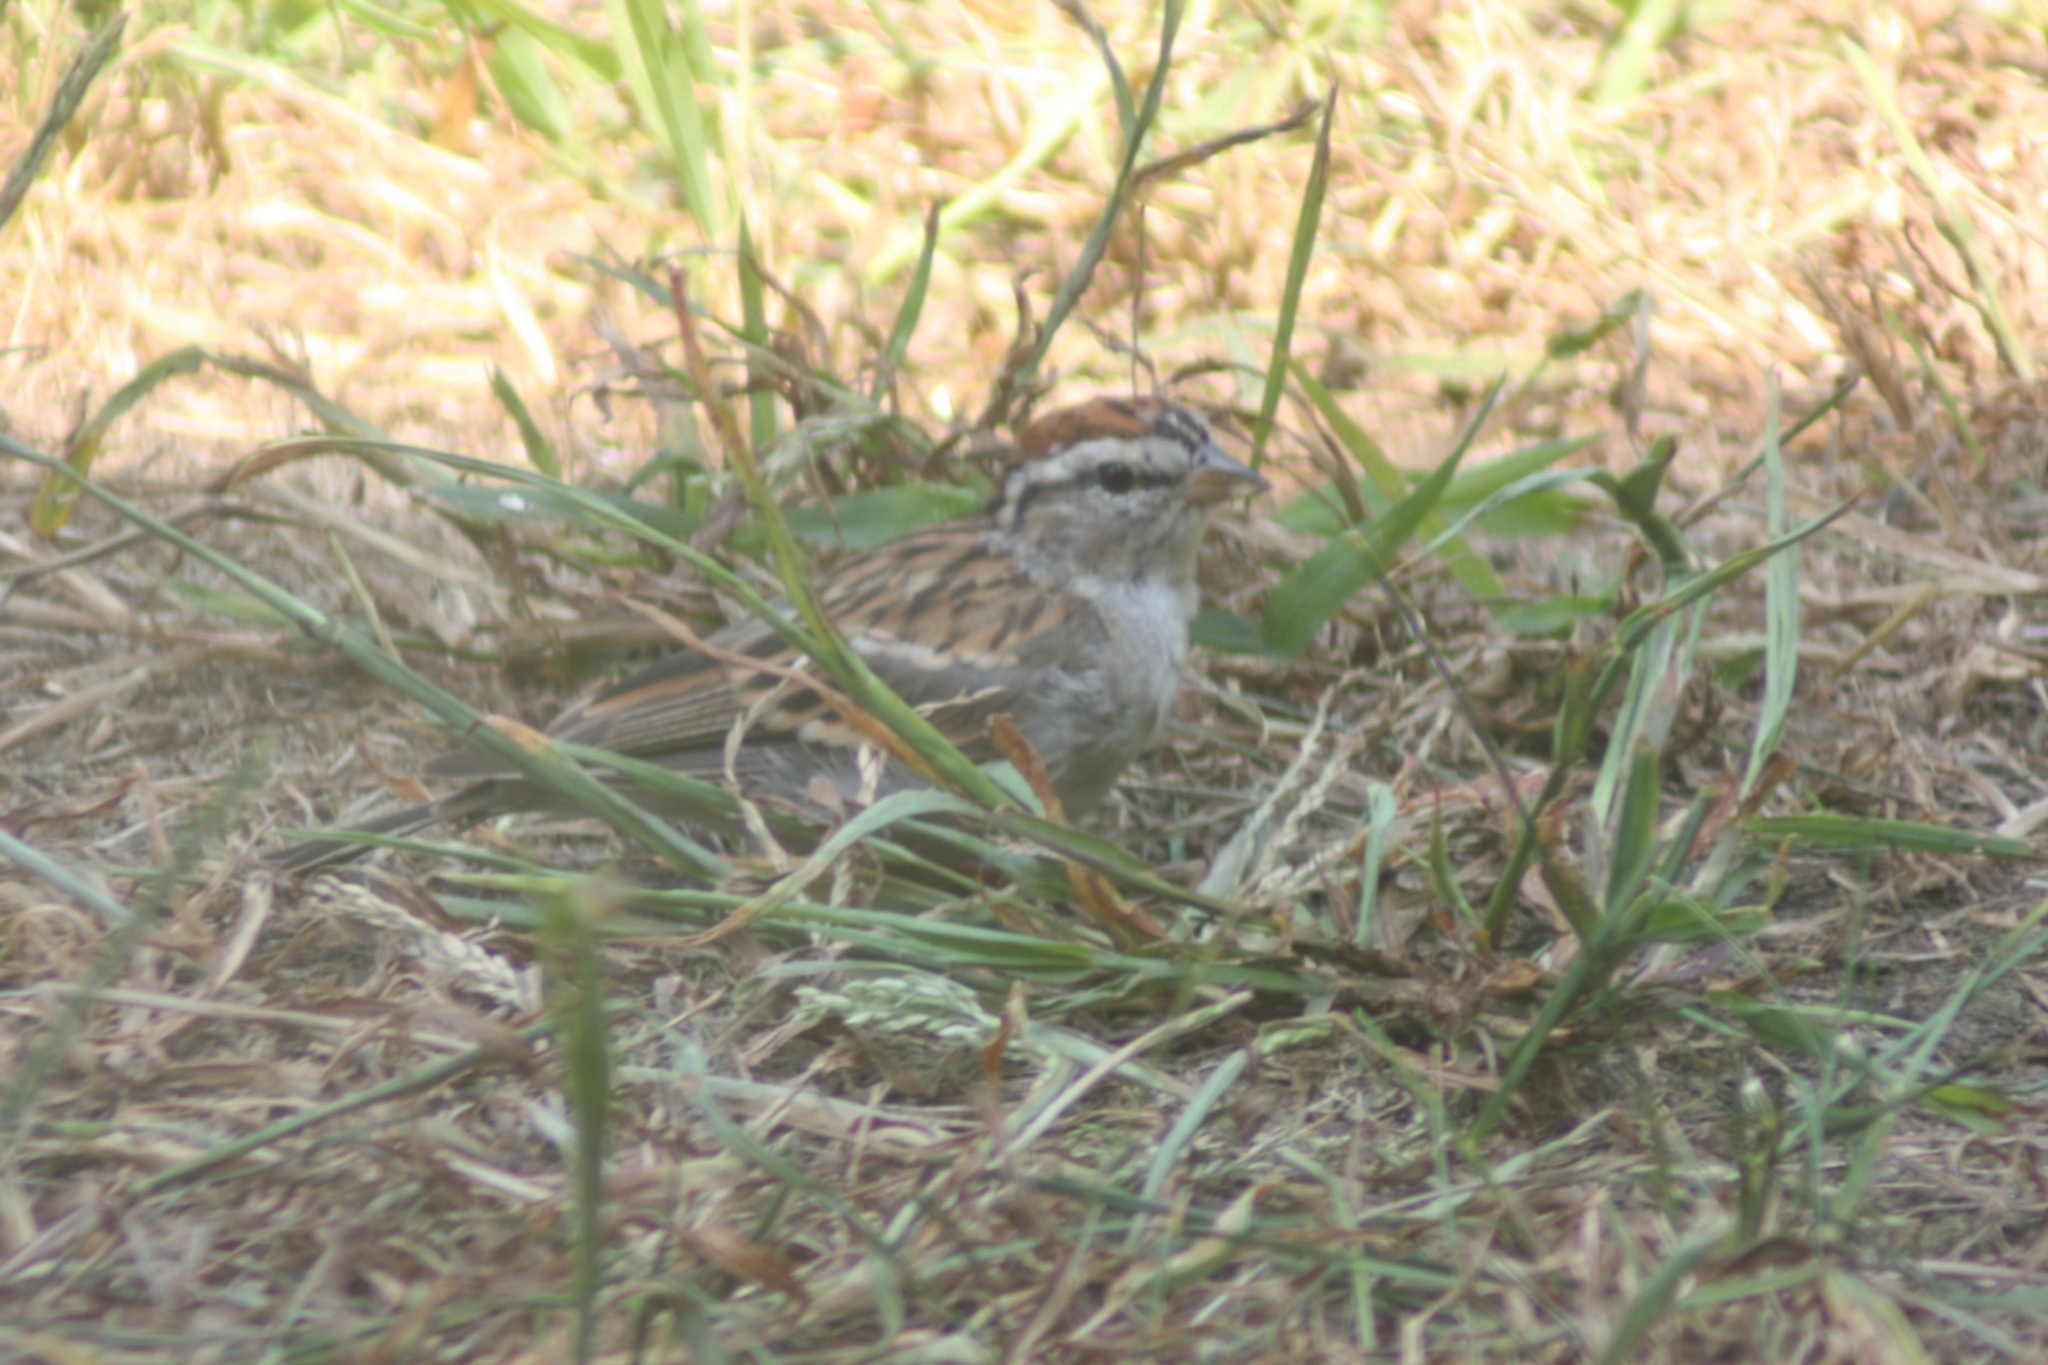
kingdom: Animalia
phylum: Chordata
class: Aves
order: Passeriformes
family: Passerellidae
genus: Spizella
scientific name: Spizella passerina
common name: Chipping sparrow
